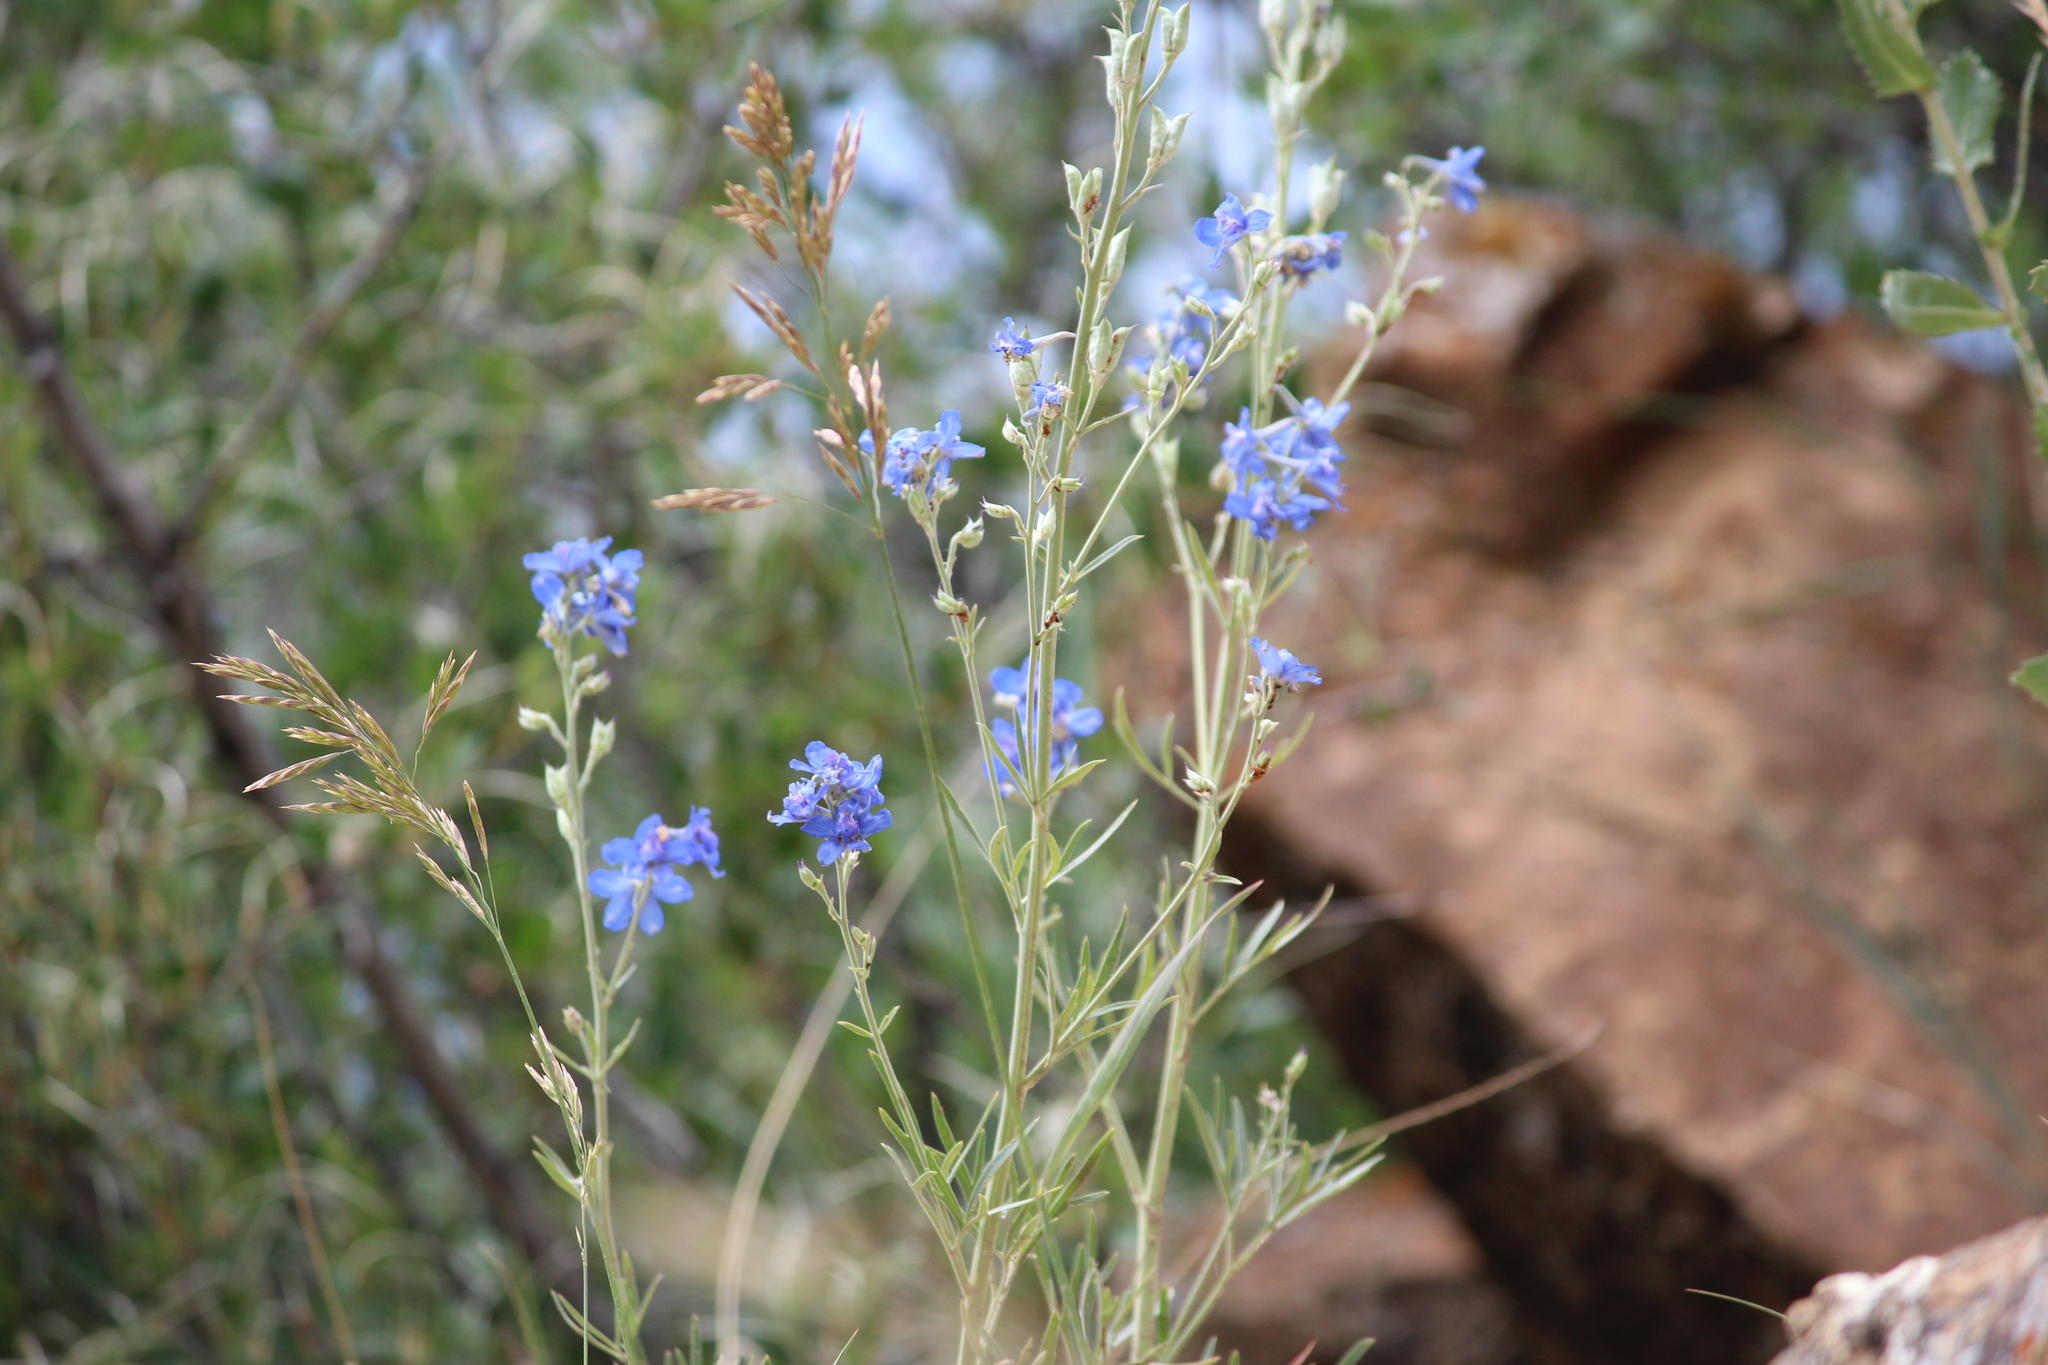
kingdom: Plantae
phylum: Tracheophyta
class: Magnoliopsida
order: Ranunculales
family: Ranunculaceae
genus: Delphinium
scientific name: Delphinium geyeri
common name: Geyer's larkspur
